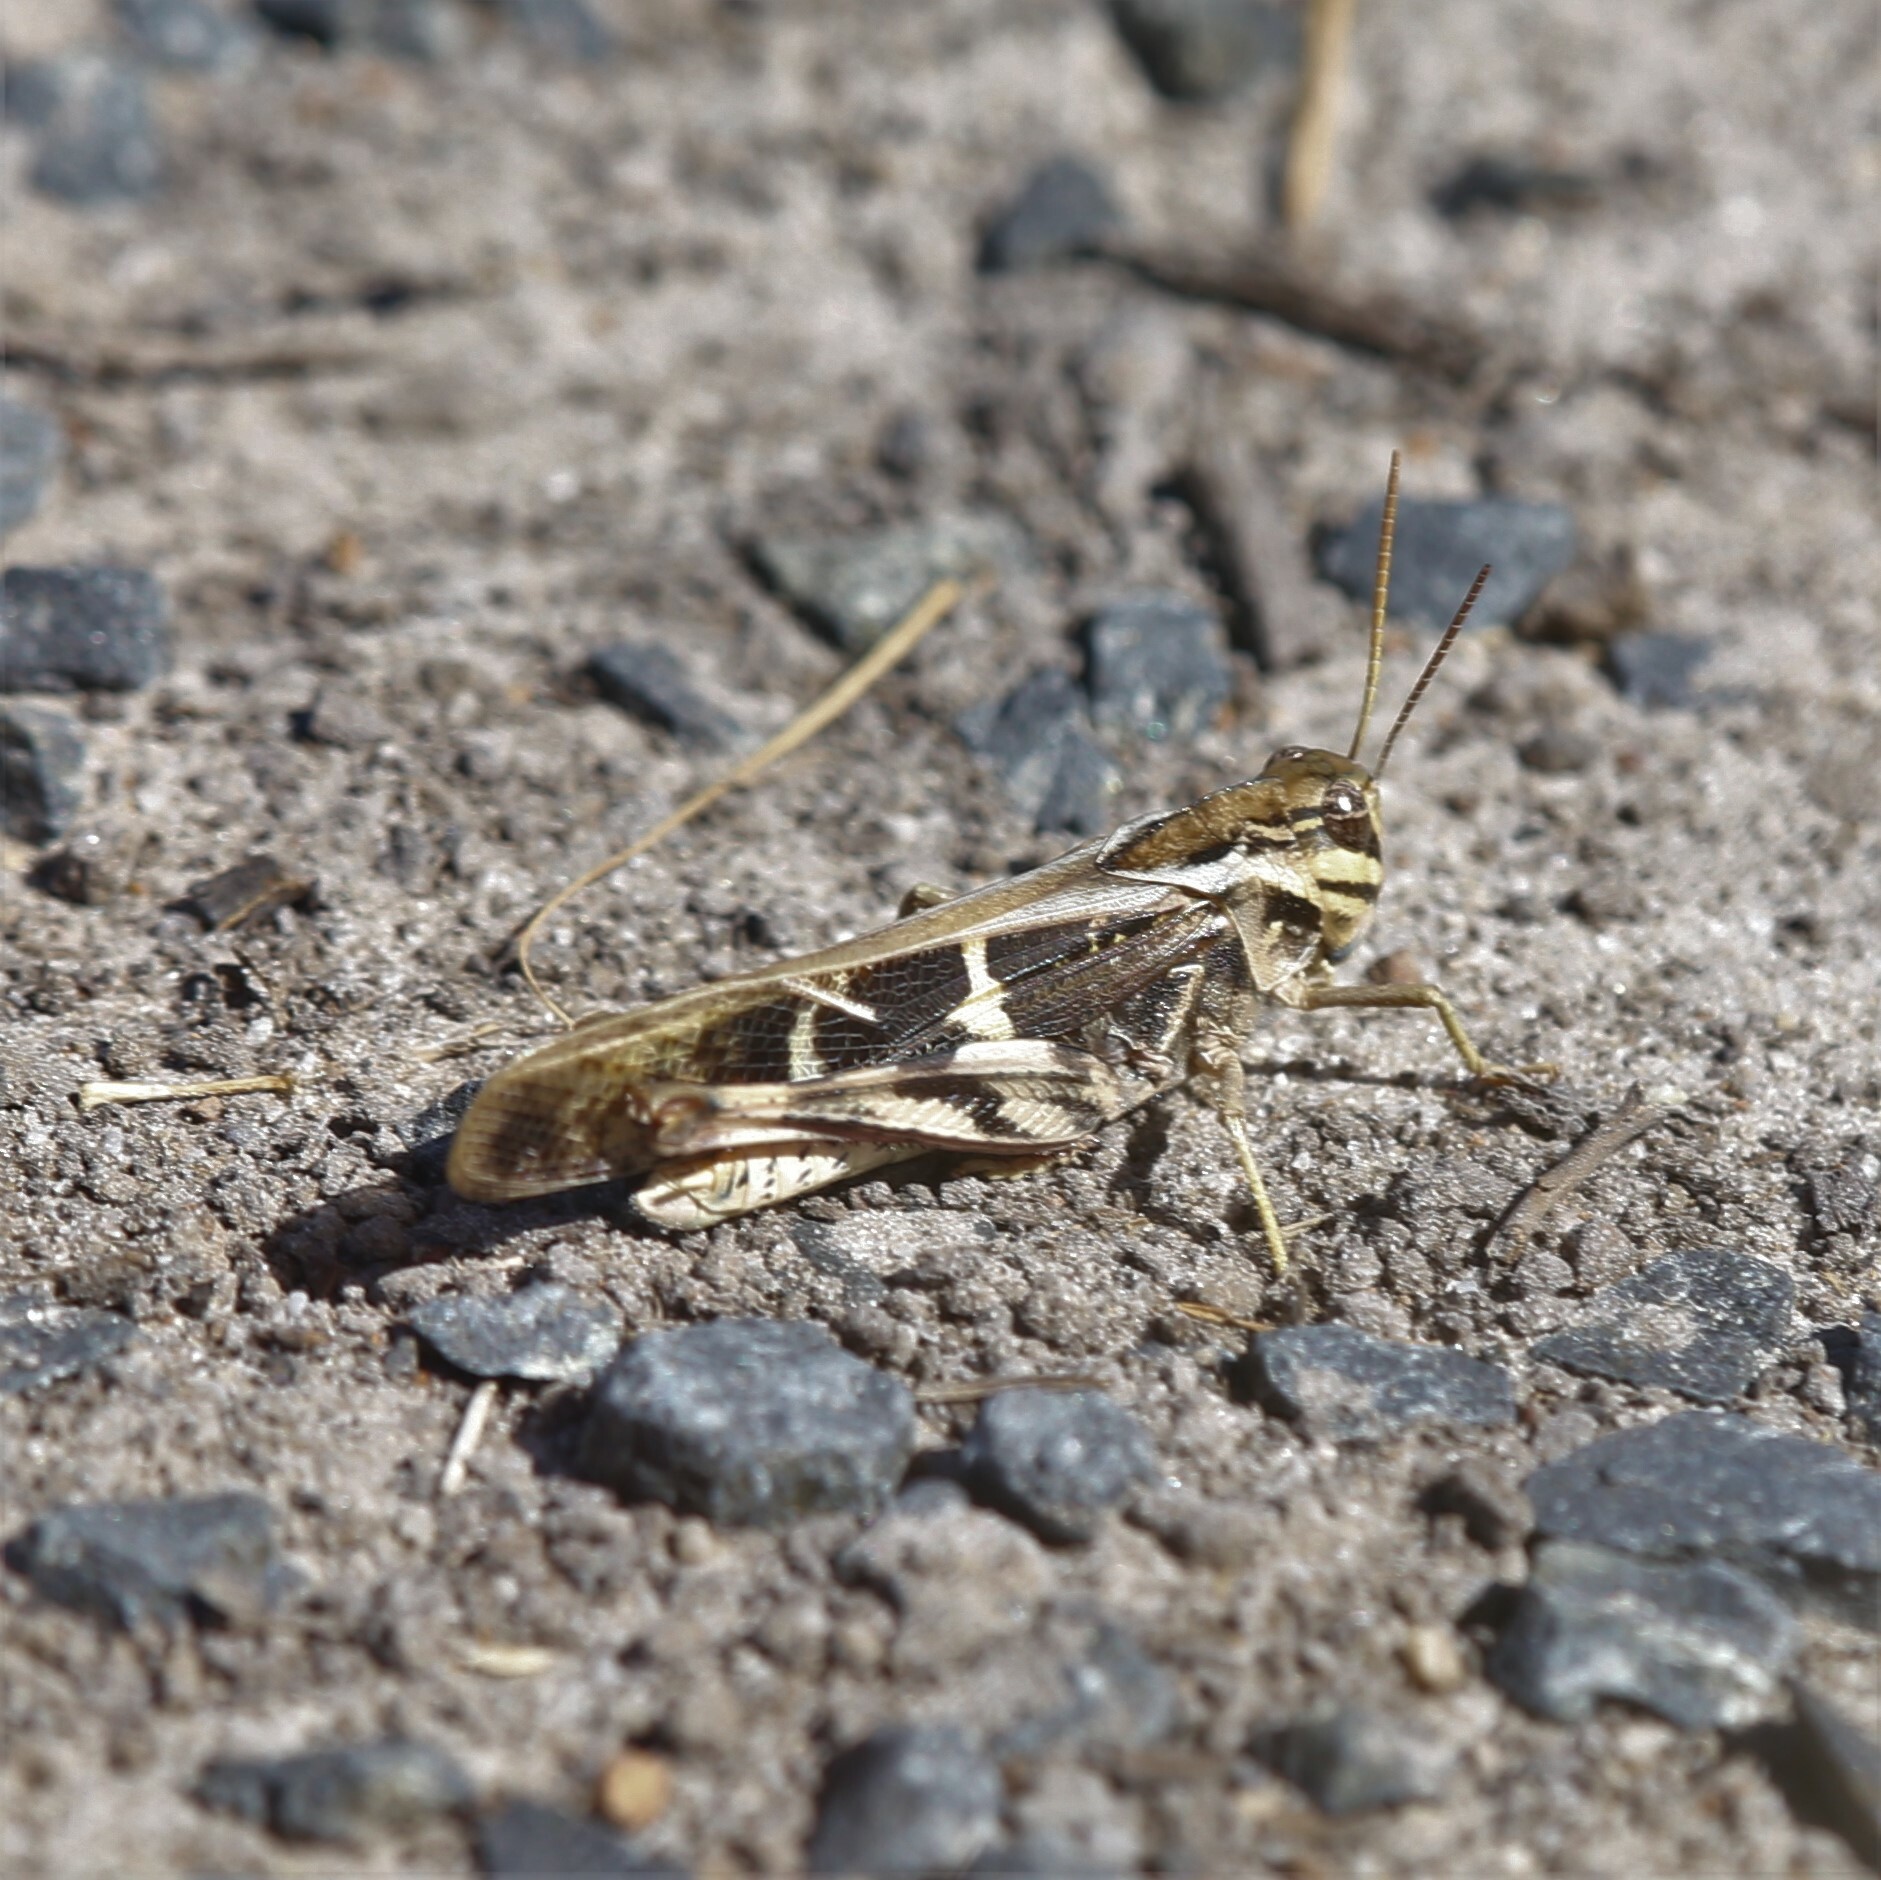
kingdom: Animalia
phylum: Arthropoda
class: Insecta
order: Orthoptera
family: Acrididae
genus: Gastrimargus
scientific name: Gastrimargus musicus
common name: Yellow-winged locust
